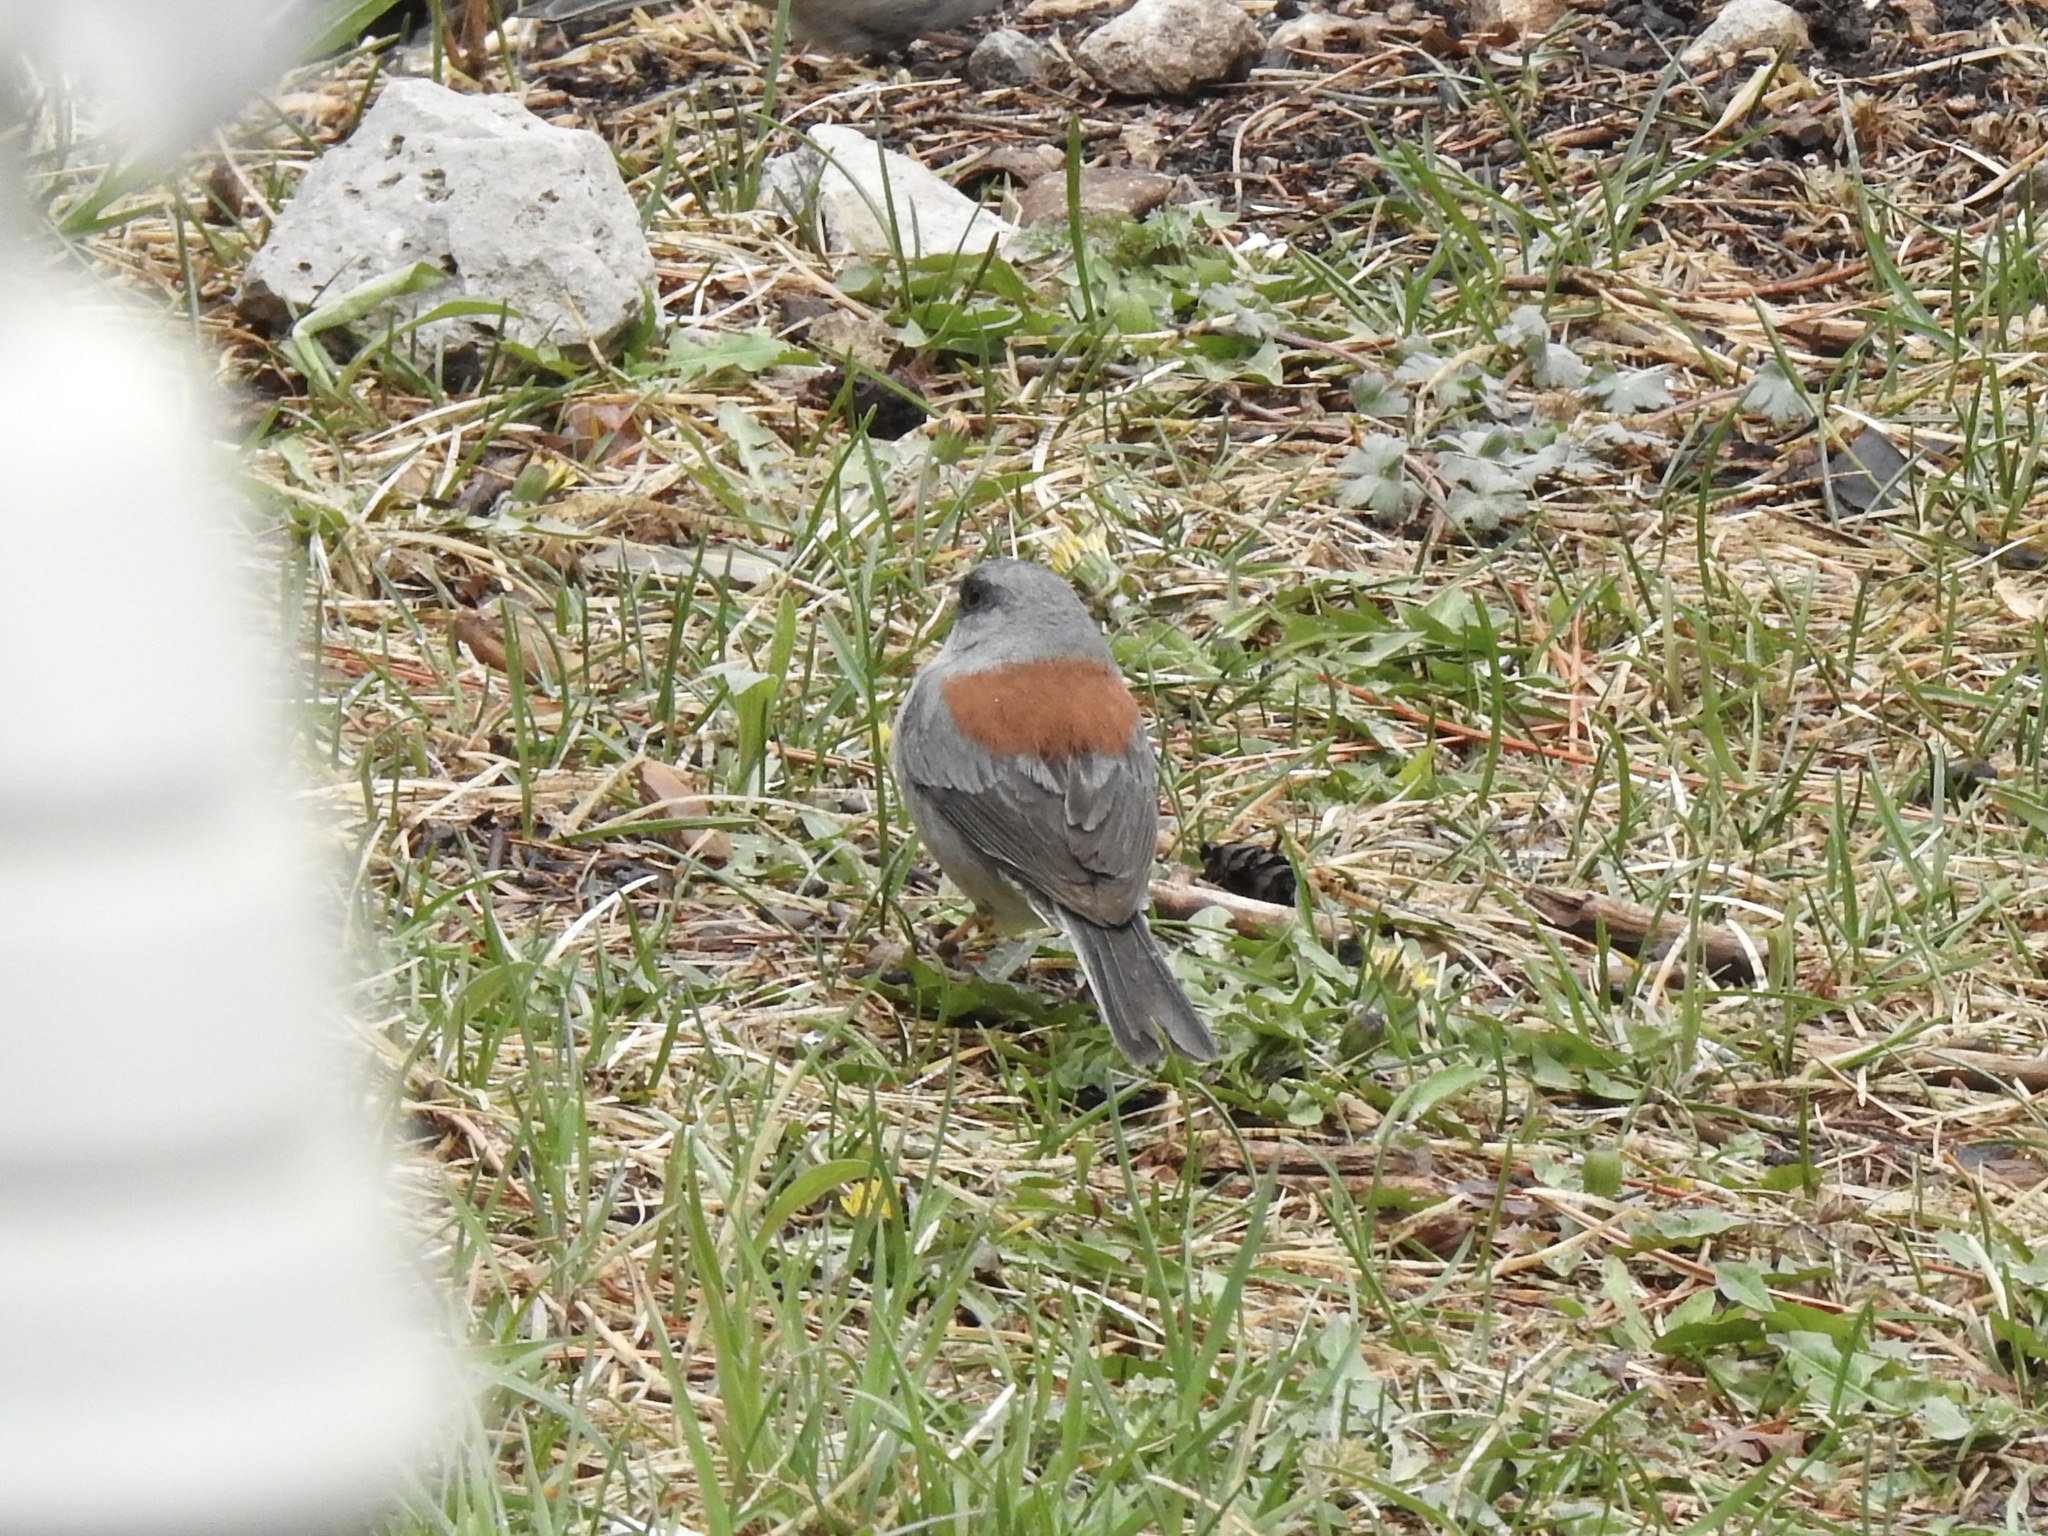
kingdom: Animalia
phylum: Chordata
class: Aves
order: Passeriformes
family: Passerellidae
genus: Junco
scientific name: Junco hyemalis
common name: Dark-eyed junco
